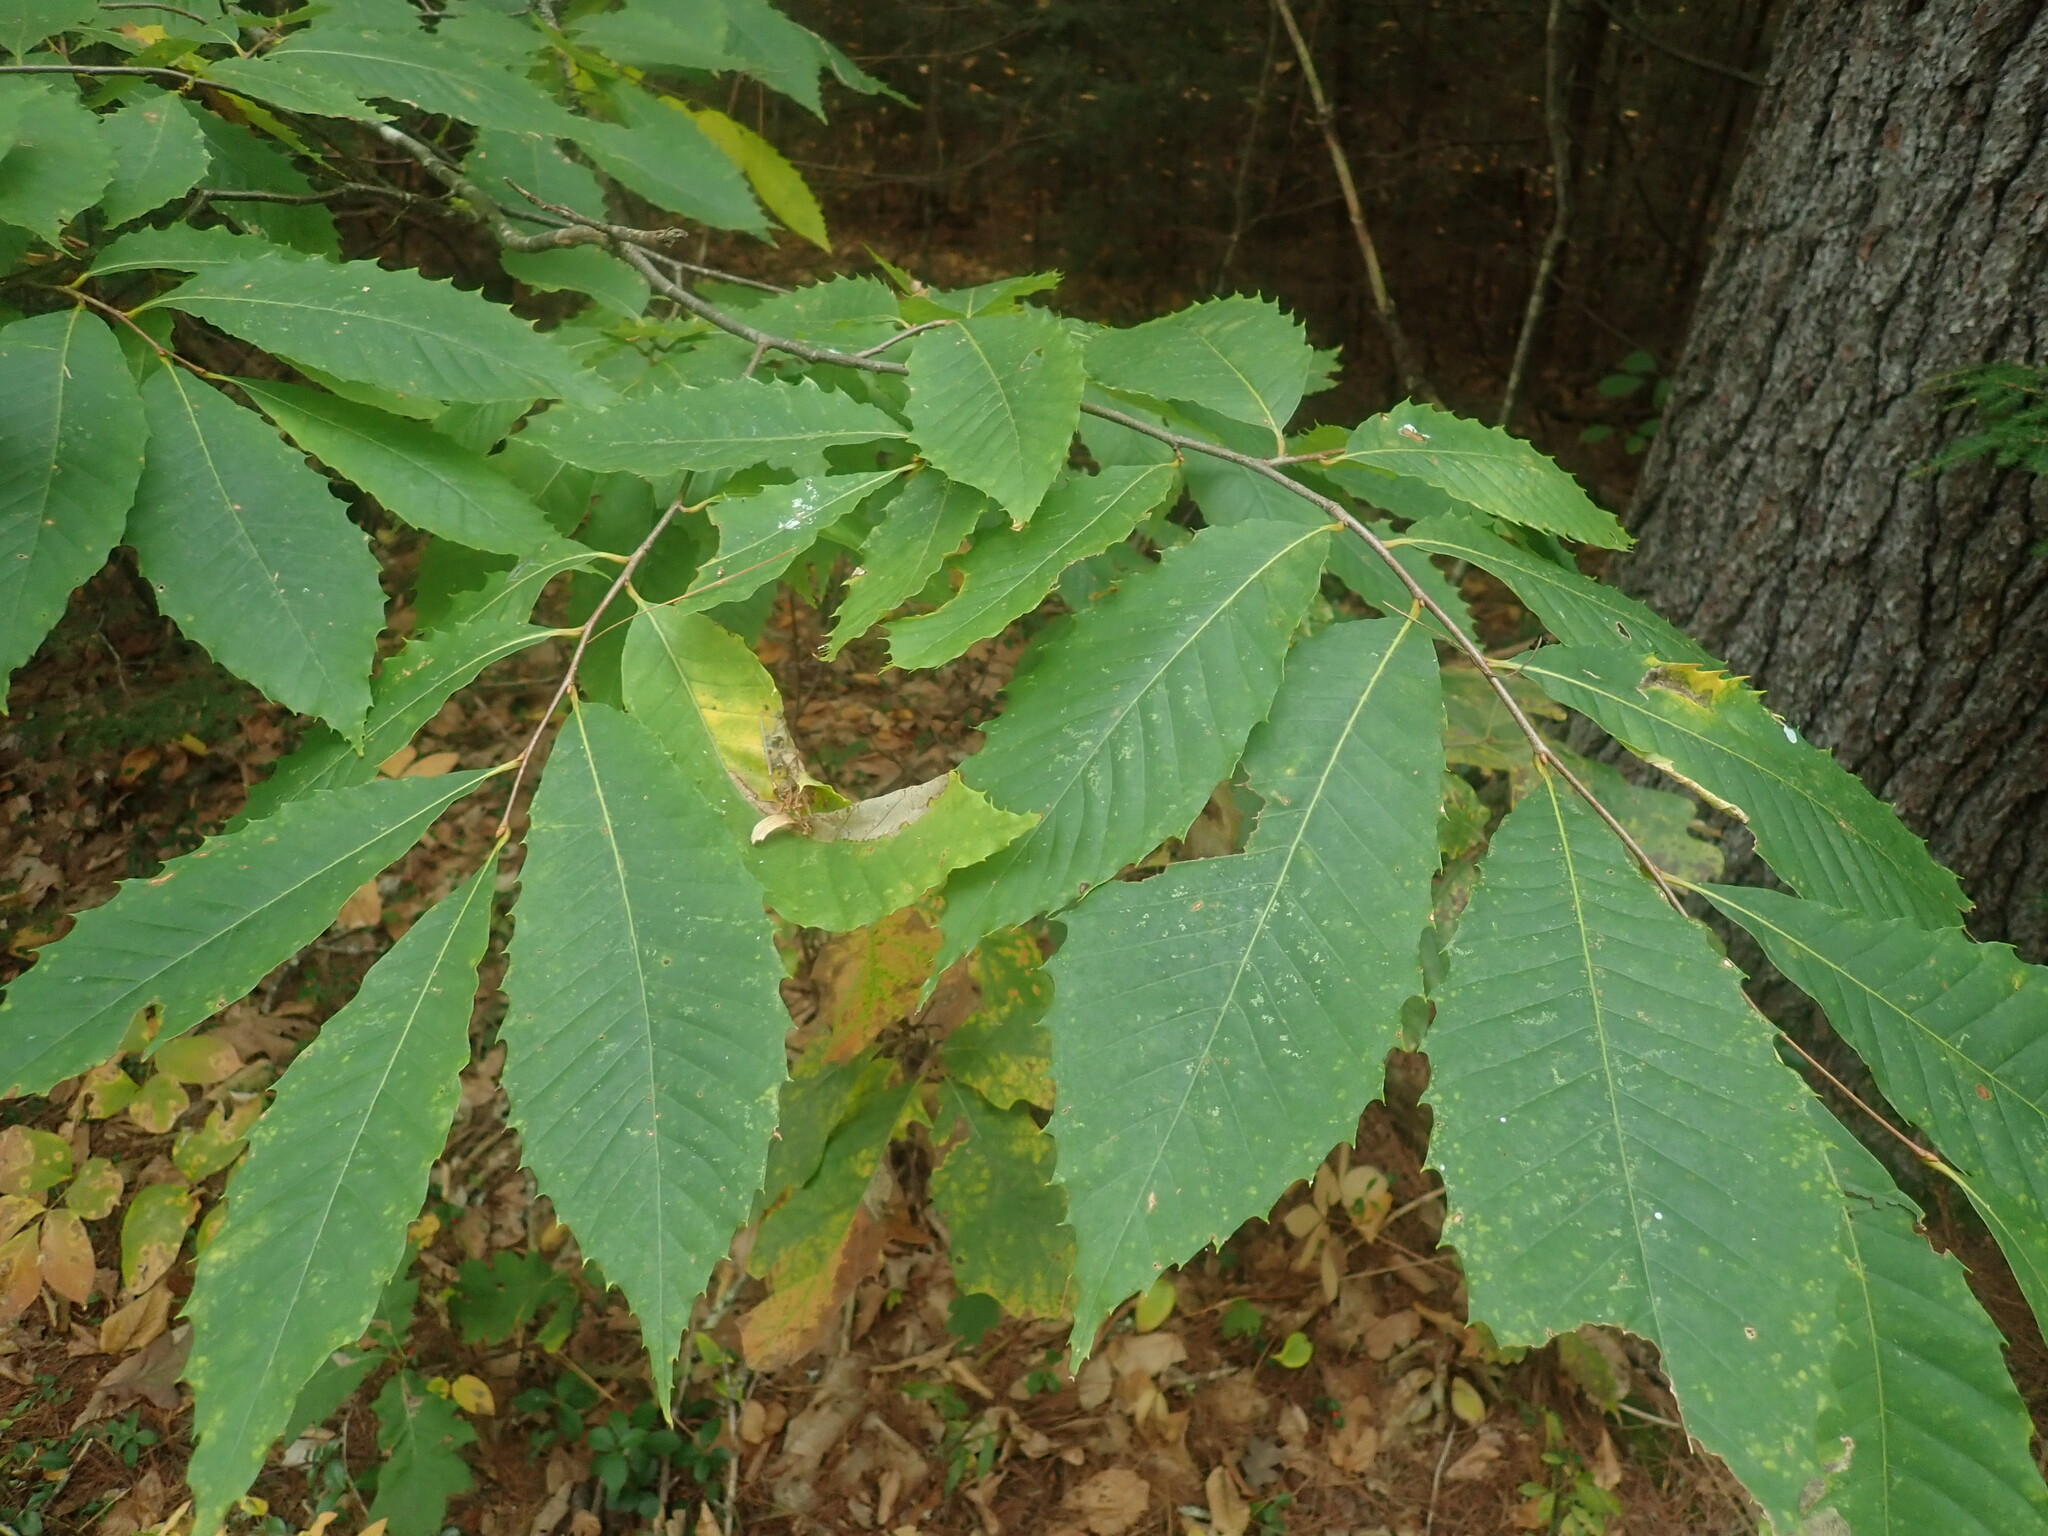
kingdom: Plantae
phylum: Tracheophyta
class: Magnoliopsida
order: Fagales
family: Fagaceae
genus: Castanea
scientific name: Castanea dentata
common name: American chestnut
